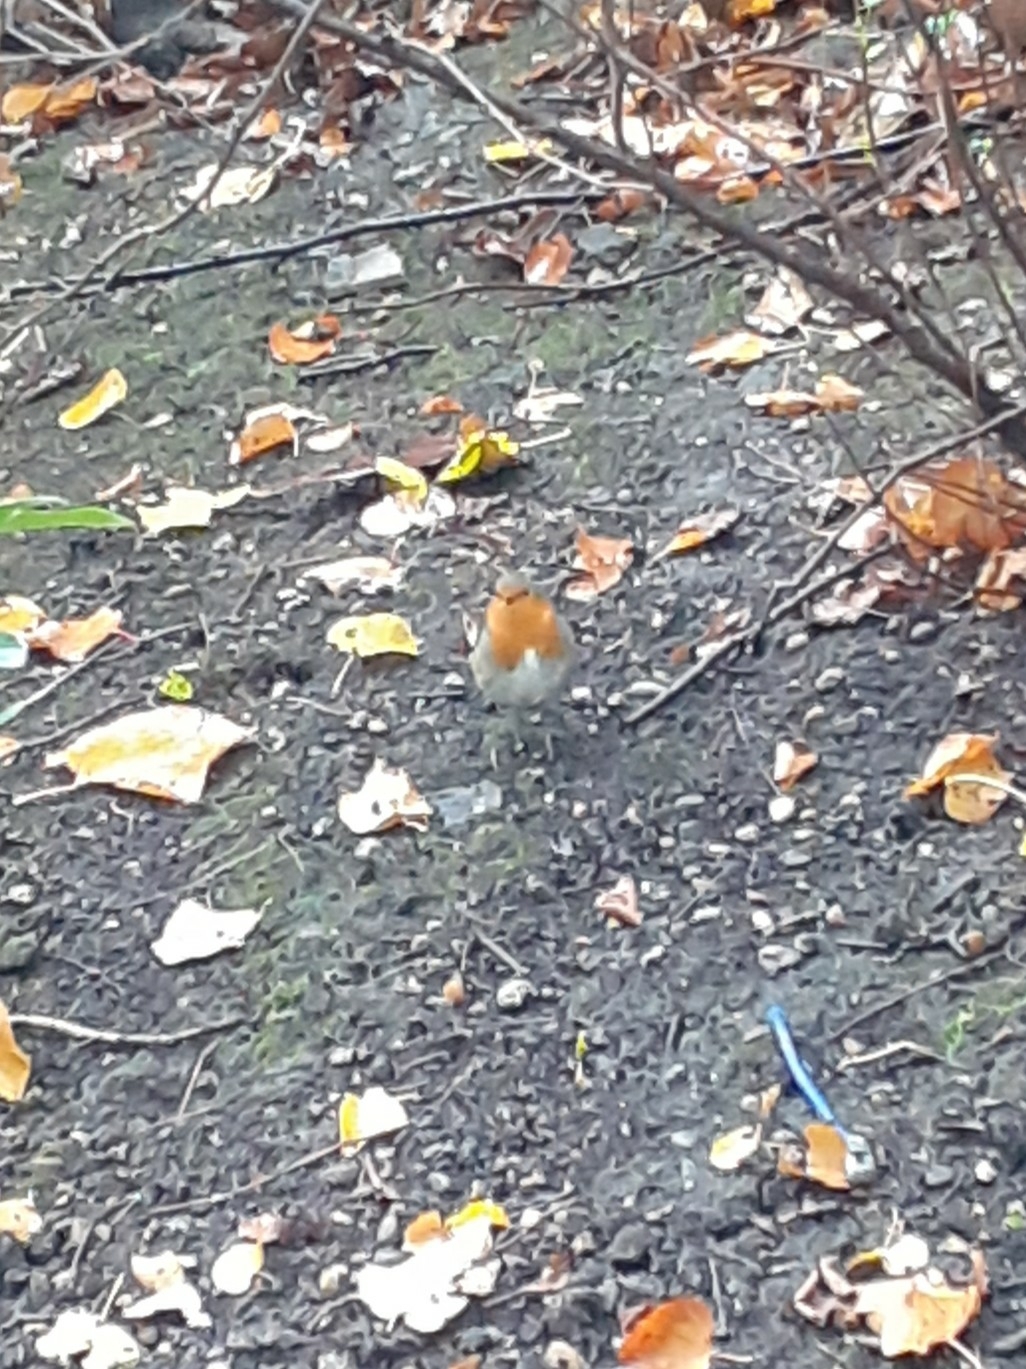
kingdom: Animalia
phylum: Chordata
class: Aves
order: Passeriformes
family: Muscicapidae
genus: Erithacus
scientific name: Erithacus rubecula
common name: European robin
